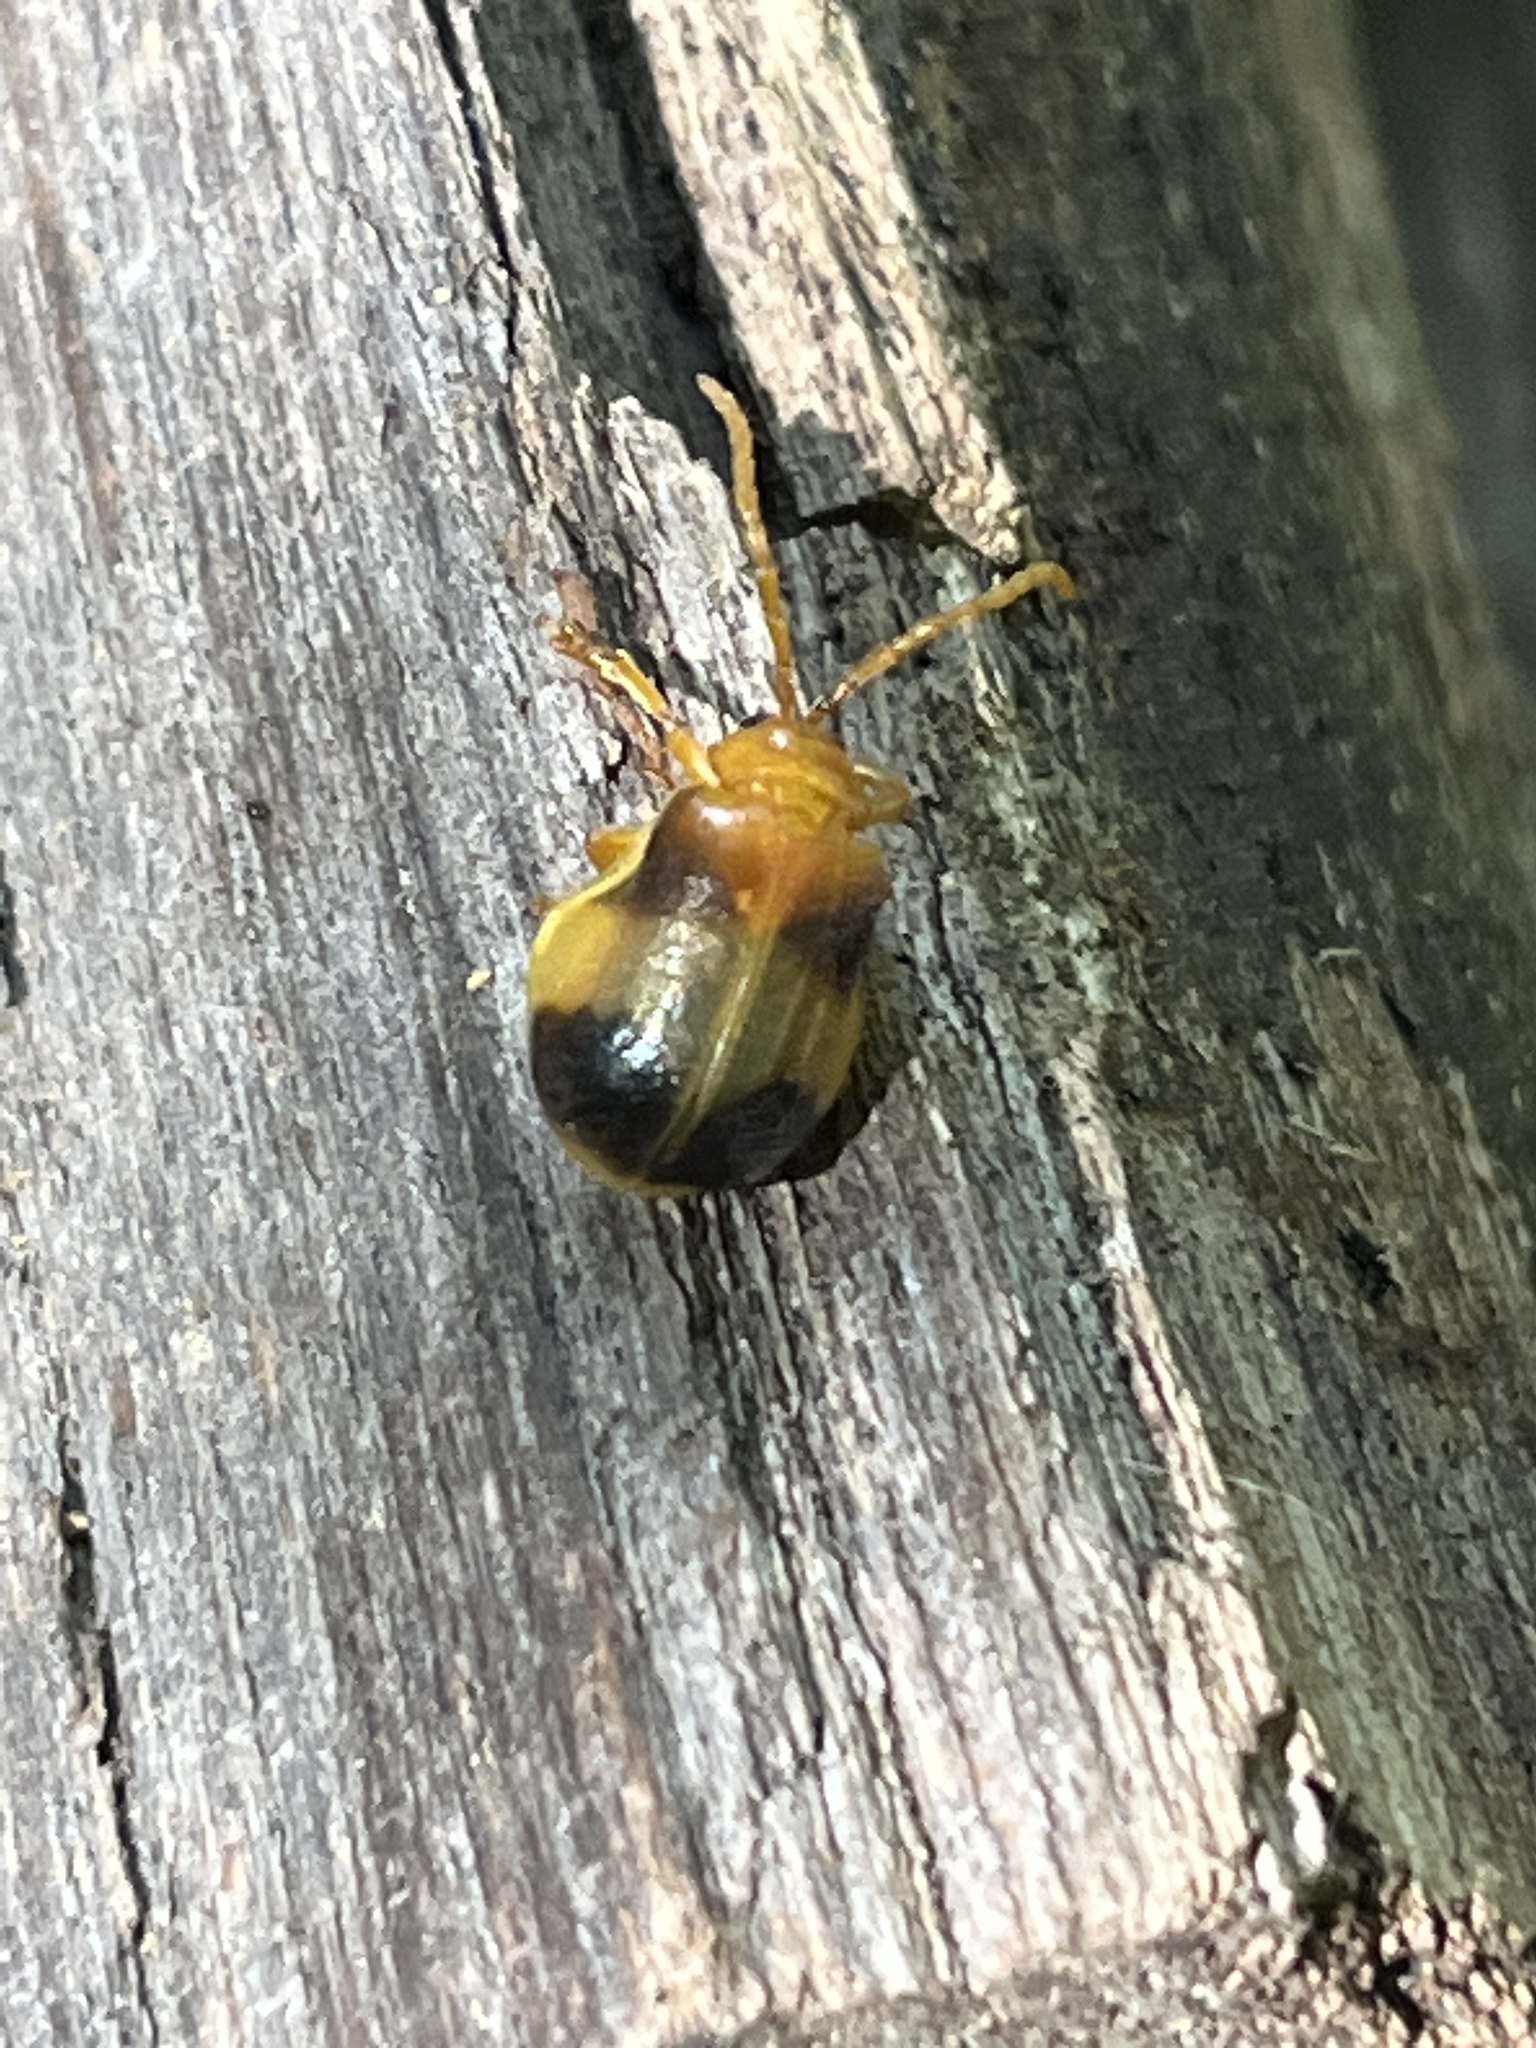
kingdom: Animalia
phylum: Arthropoda
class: Insecta
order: Coleoptera
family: Chrysomelidae
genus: Monocesta
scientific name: Monocesta coryli
